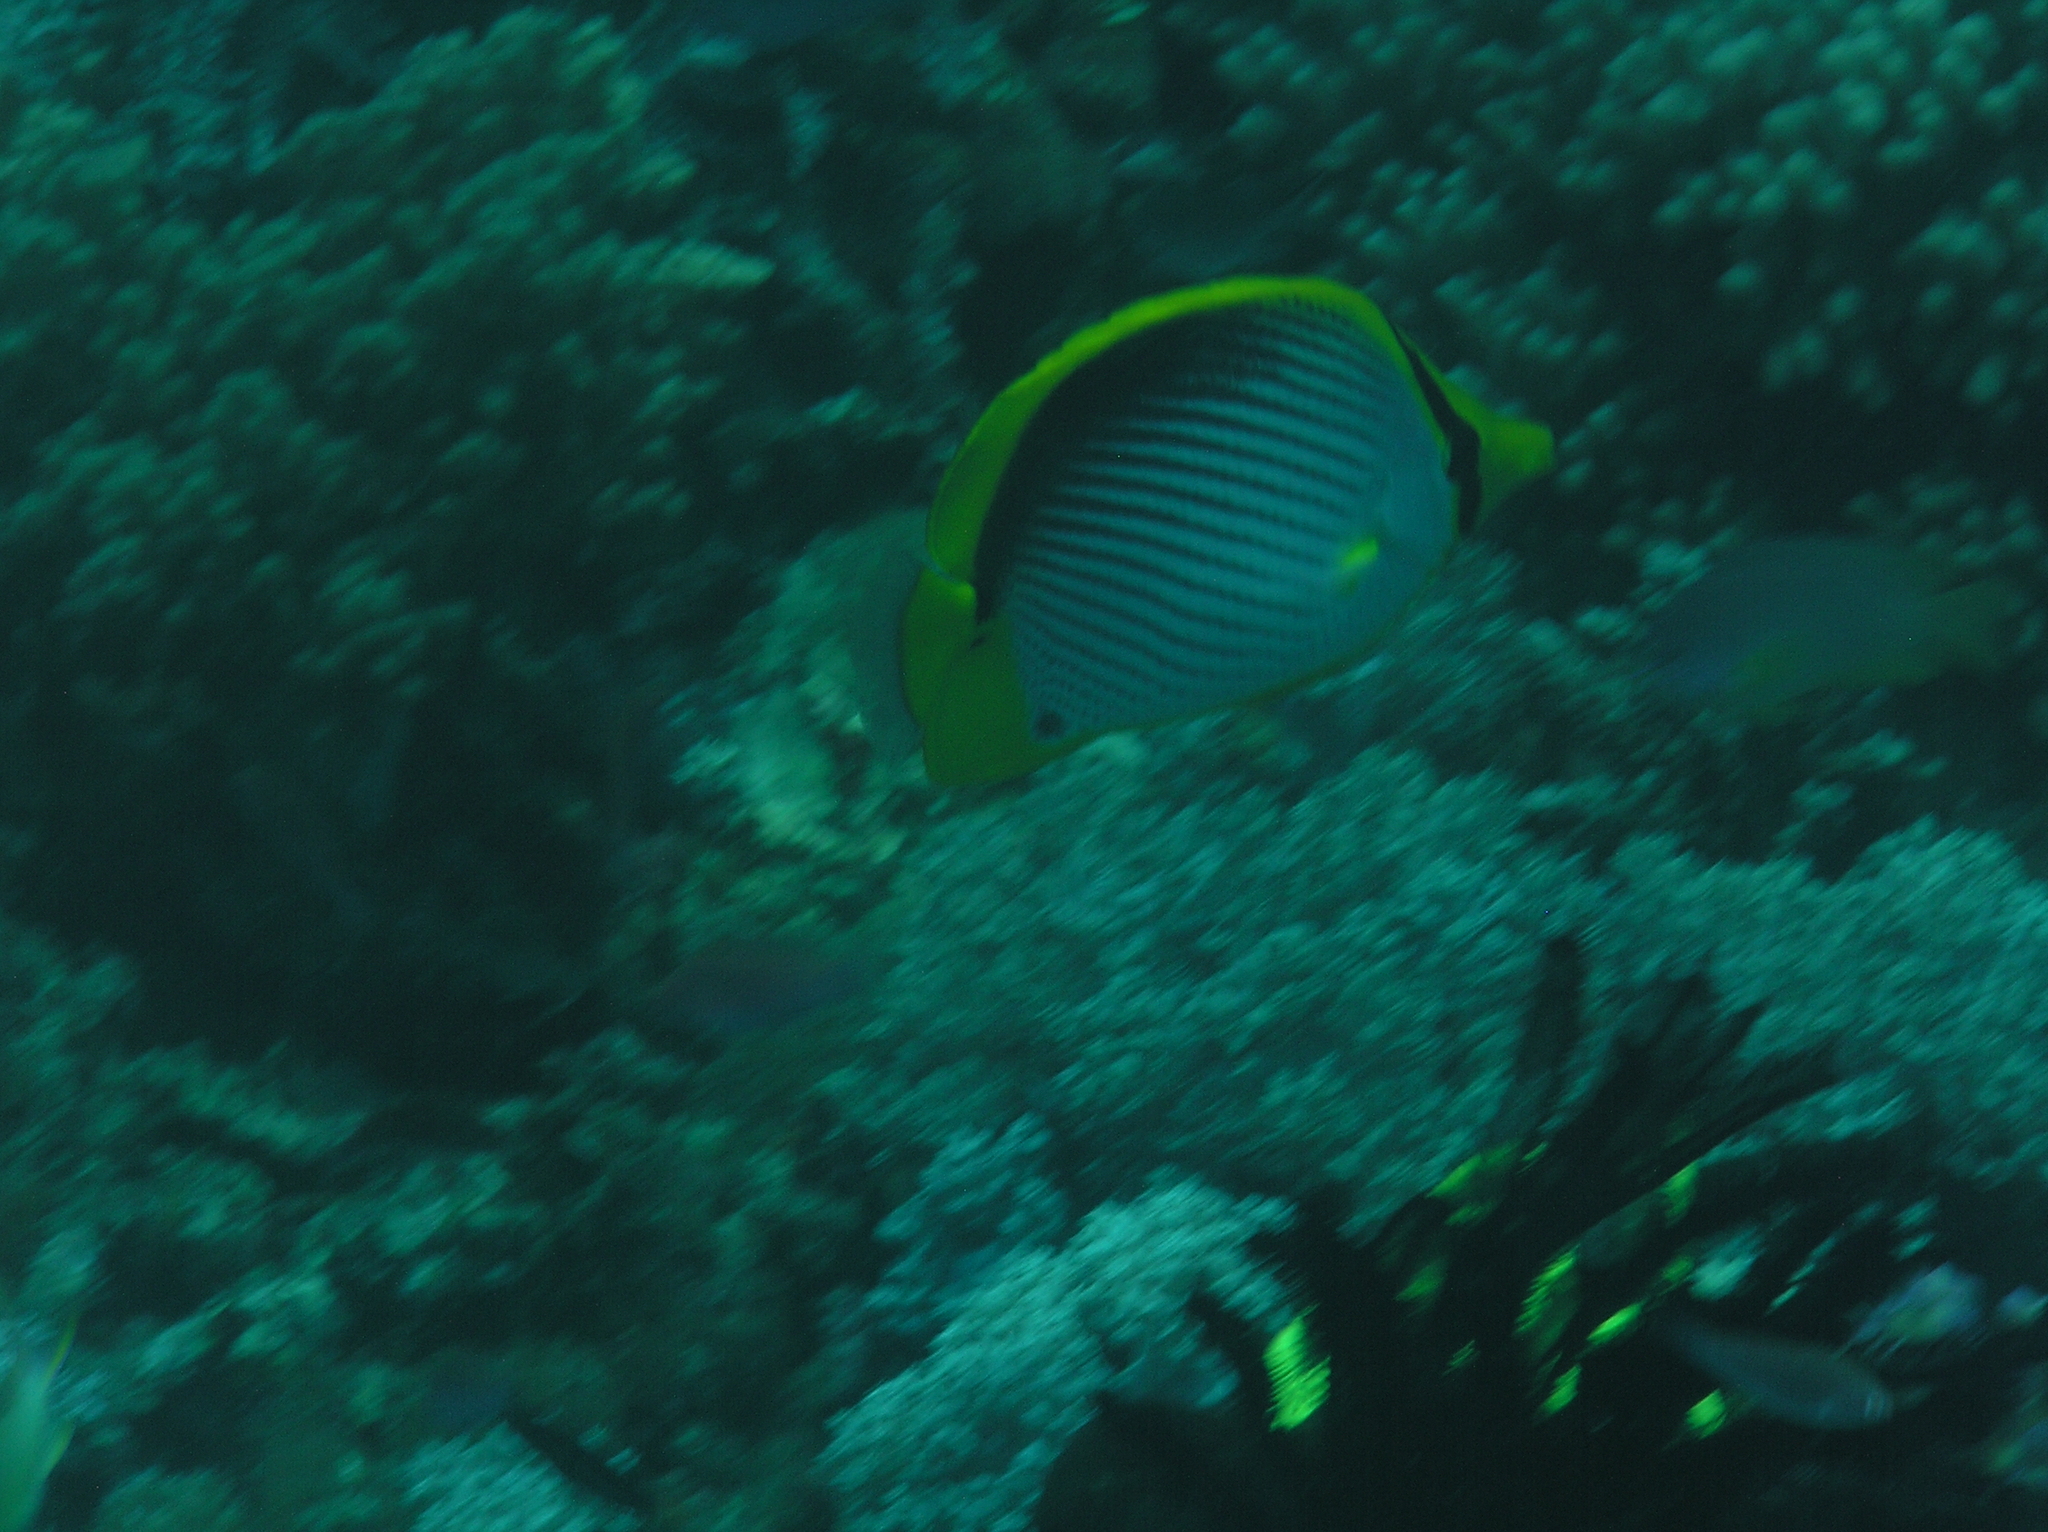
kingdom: Animalia
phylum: Chordata
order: Perciformes
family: Chaetodontidae
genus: Chaetodon
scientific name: Chaetodon melannotus
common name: Blackback butterflyfish
